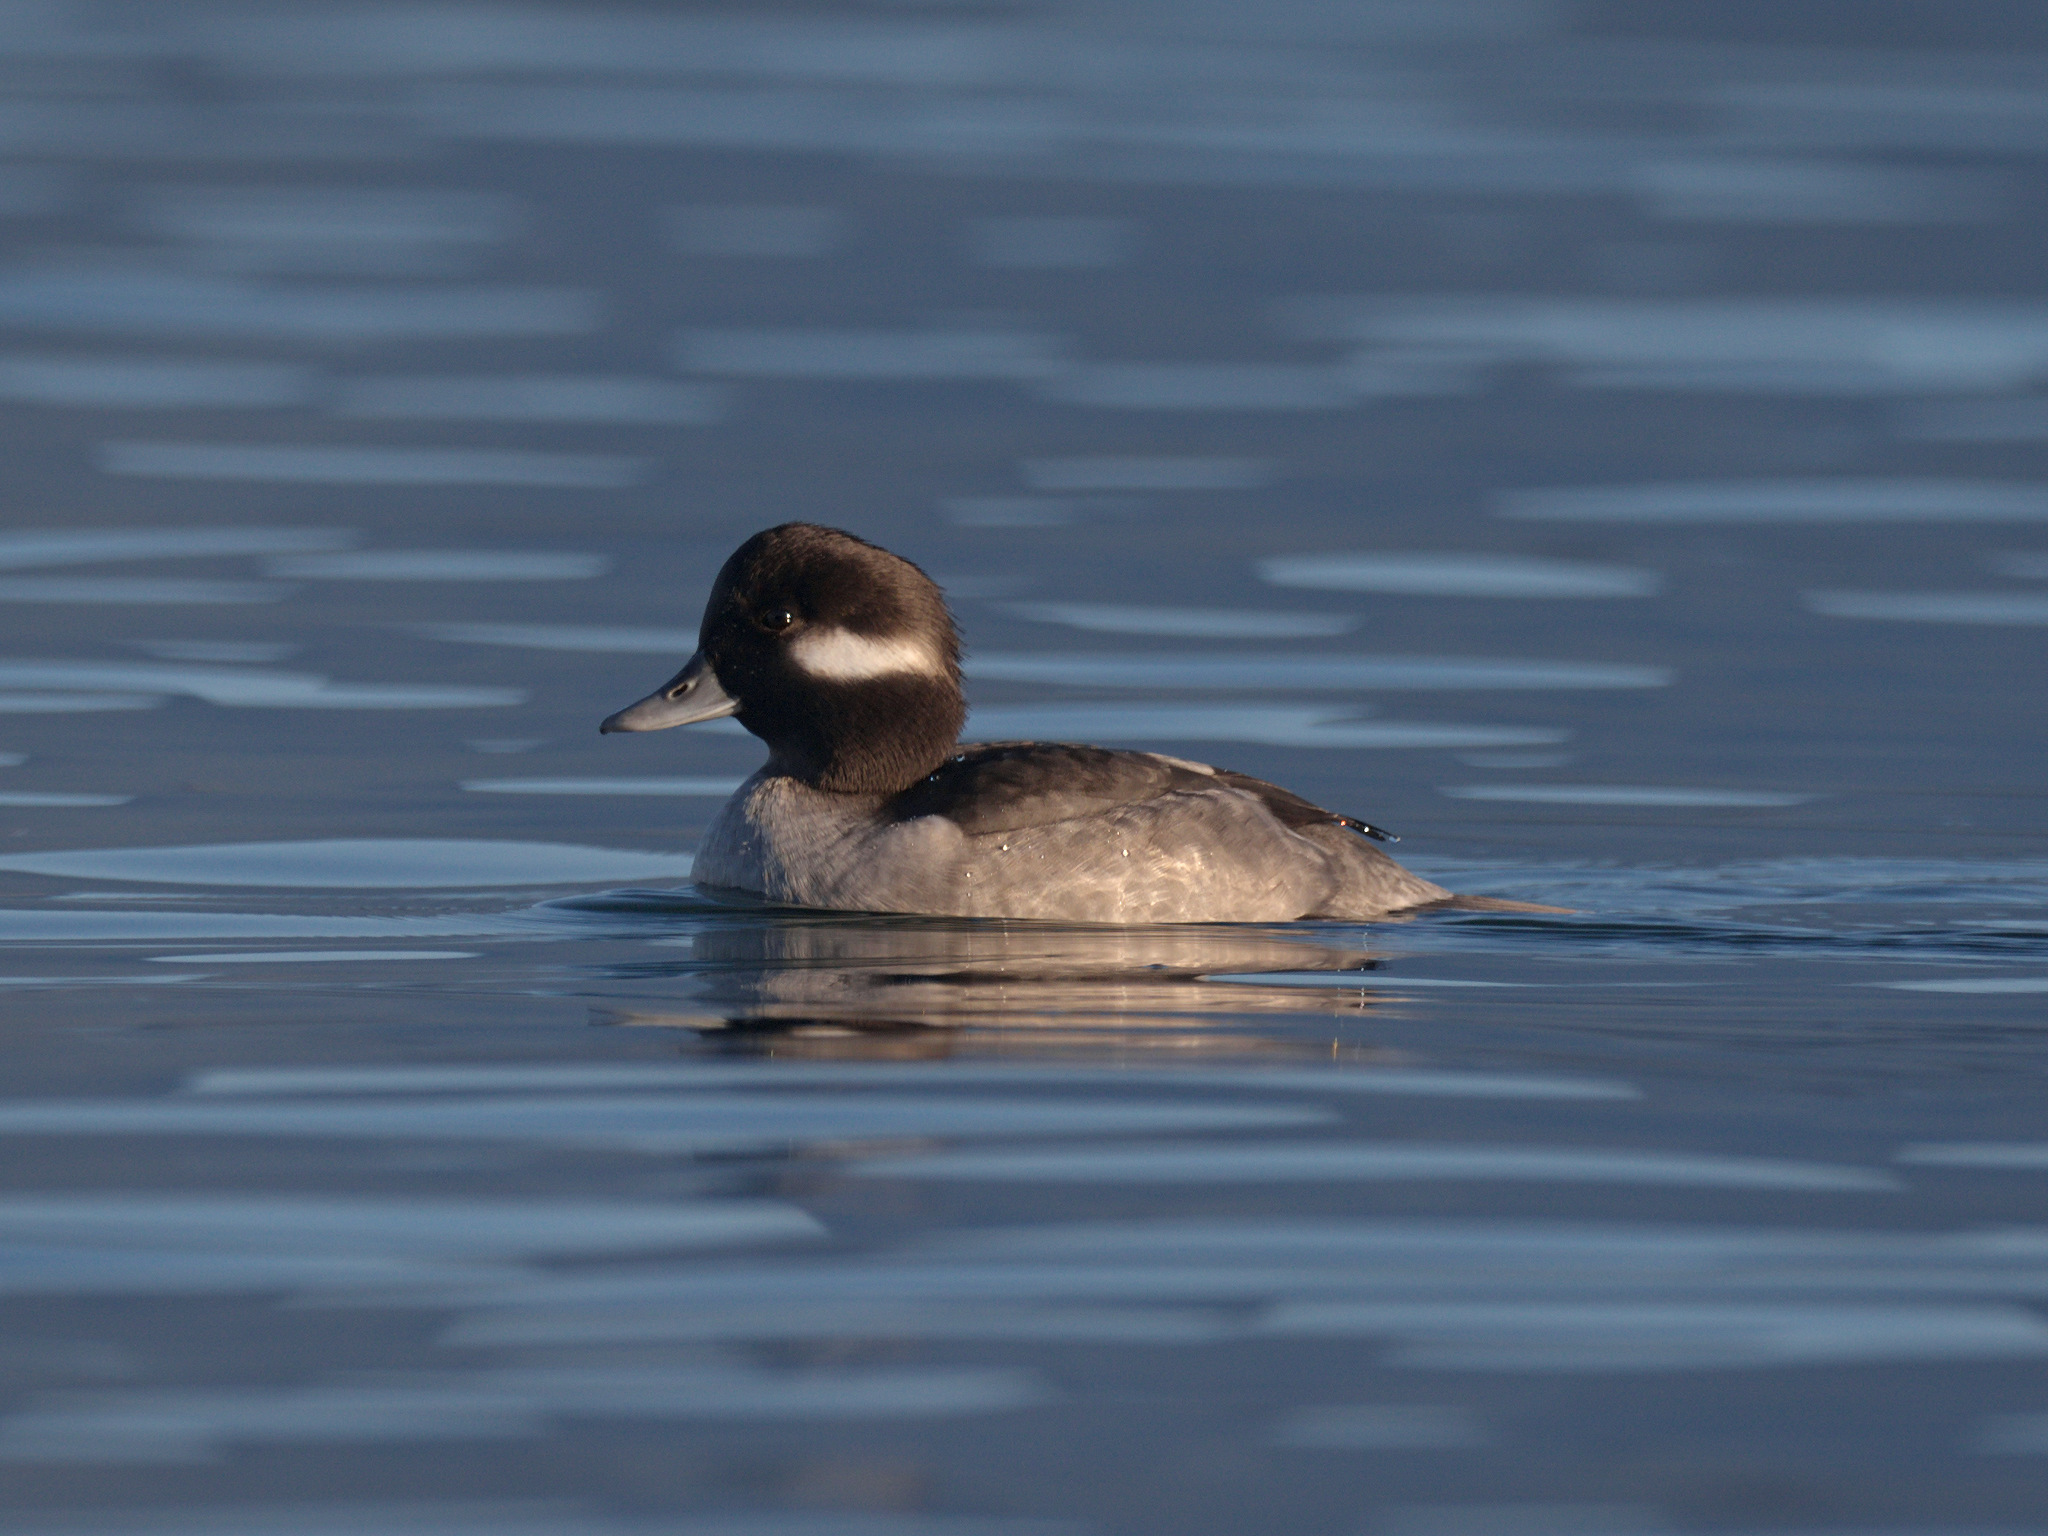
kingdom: Animalia
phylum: Chordata
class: Aves
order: Anseriformes
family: Anatidae
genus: Bucephala
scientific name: Bucephala albeola
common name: Bufflehead
